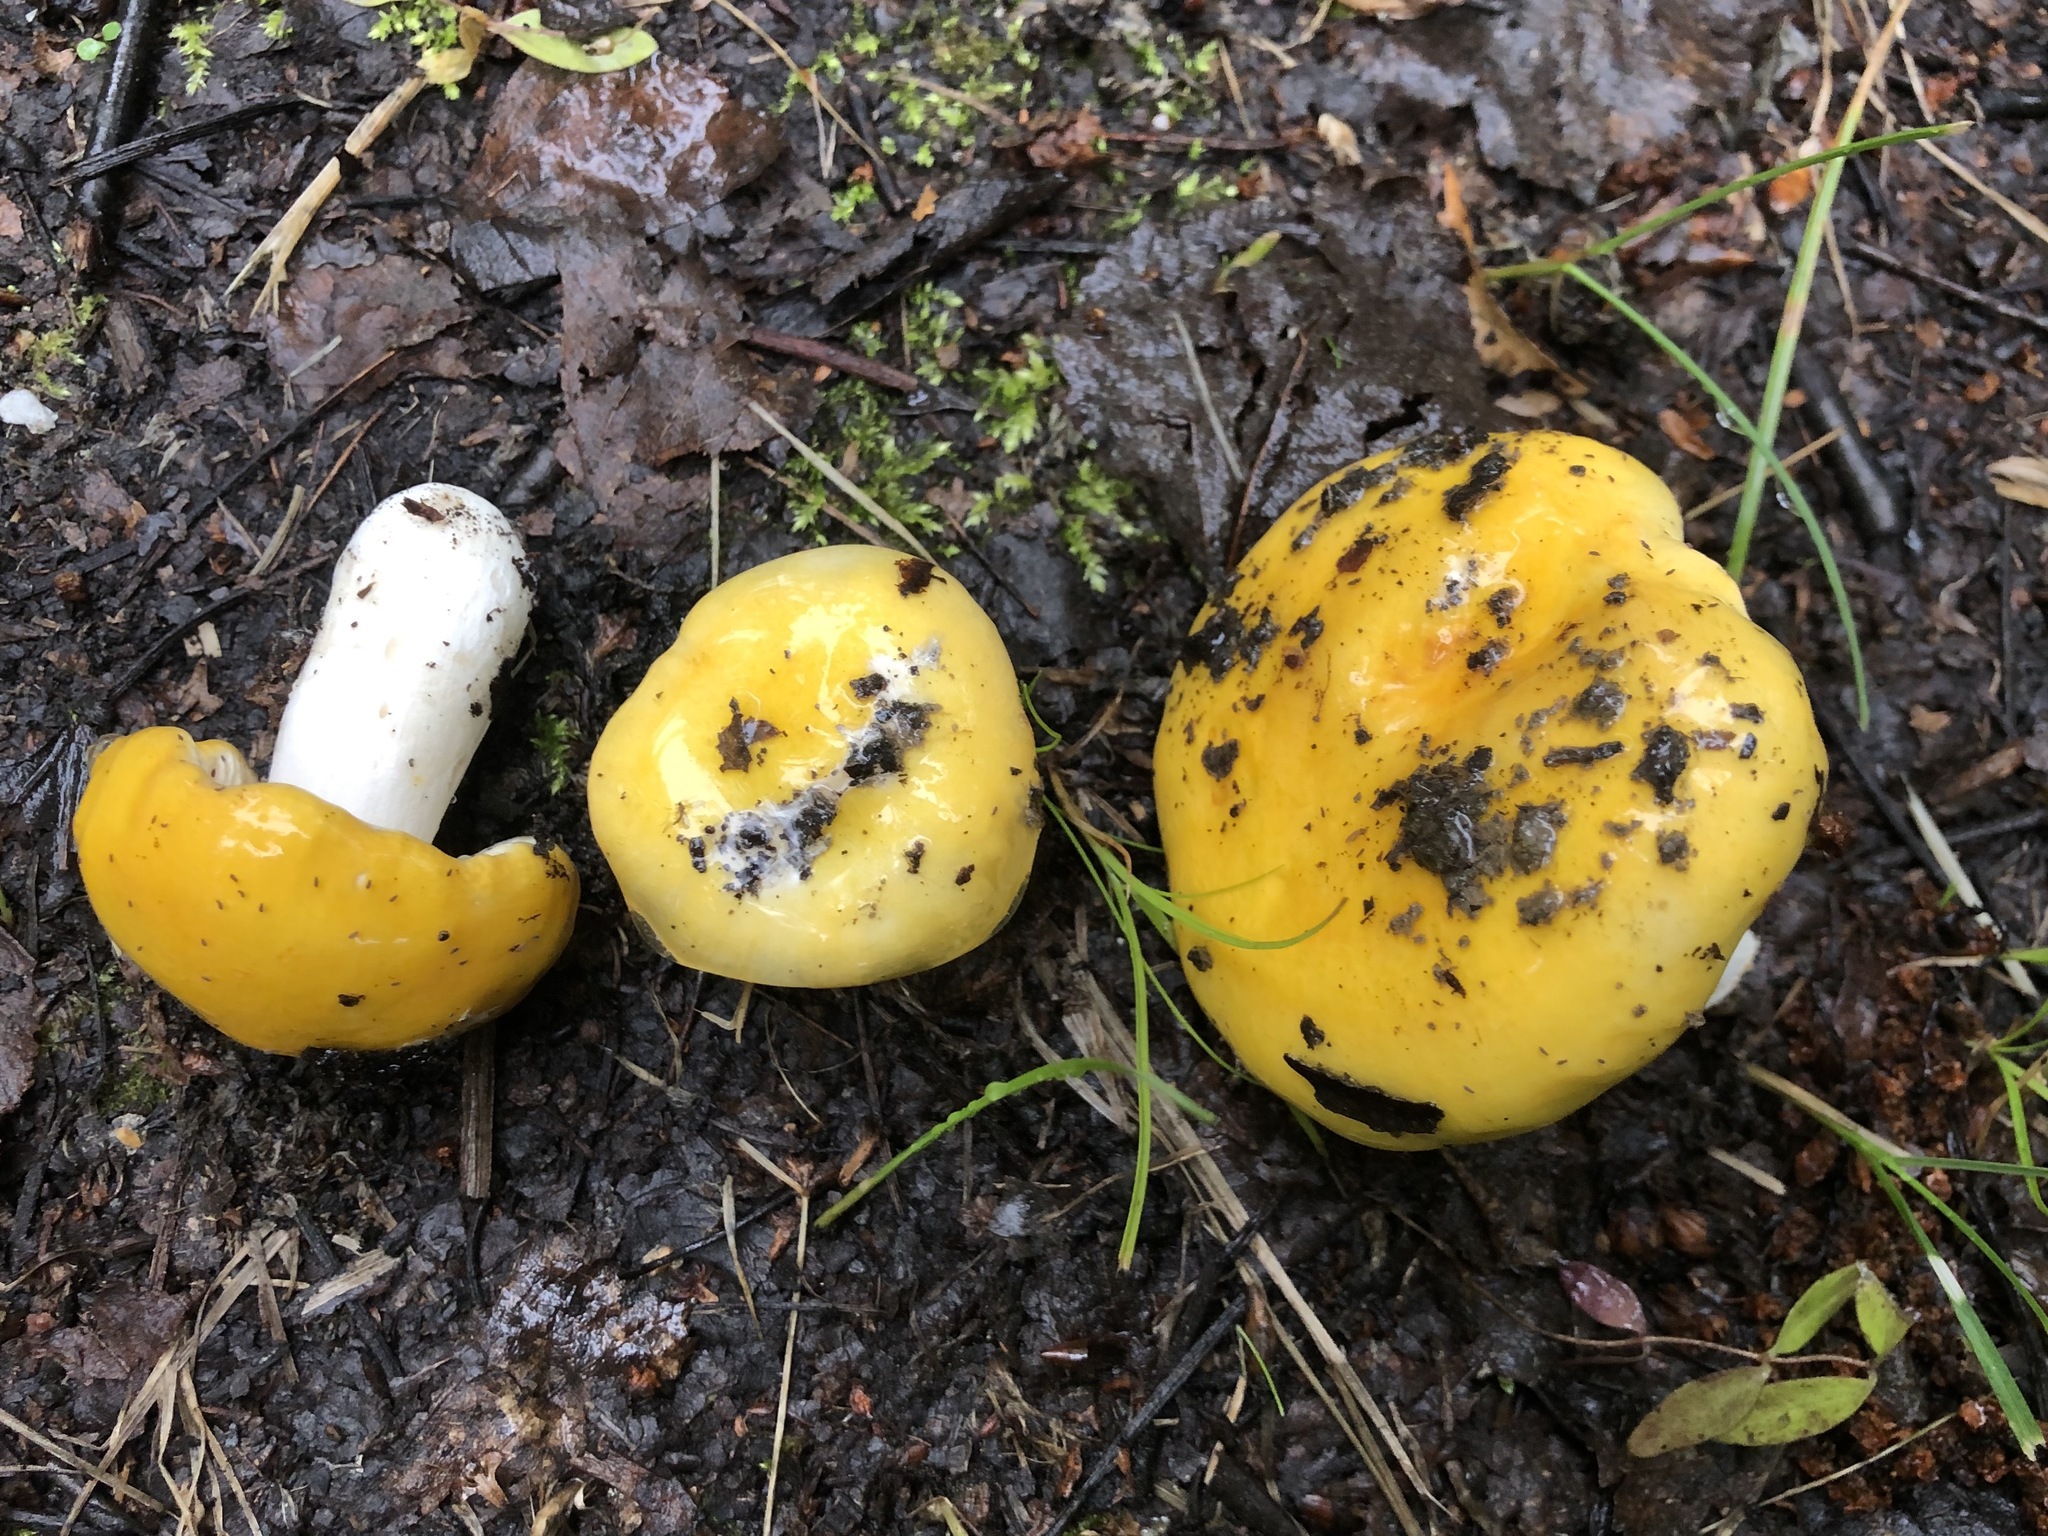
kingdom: Fungi
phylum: Basidiomycota
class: Agaricomycetes
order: Russulales
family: Russulaceae
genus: Russula
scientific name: Russula claroflava
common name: The yellow swamp brittlegill
